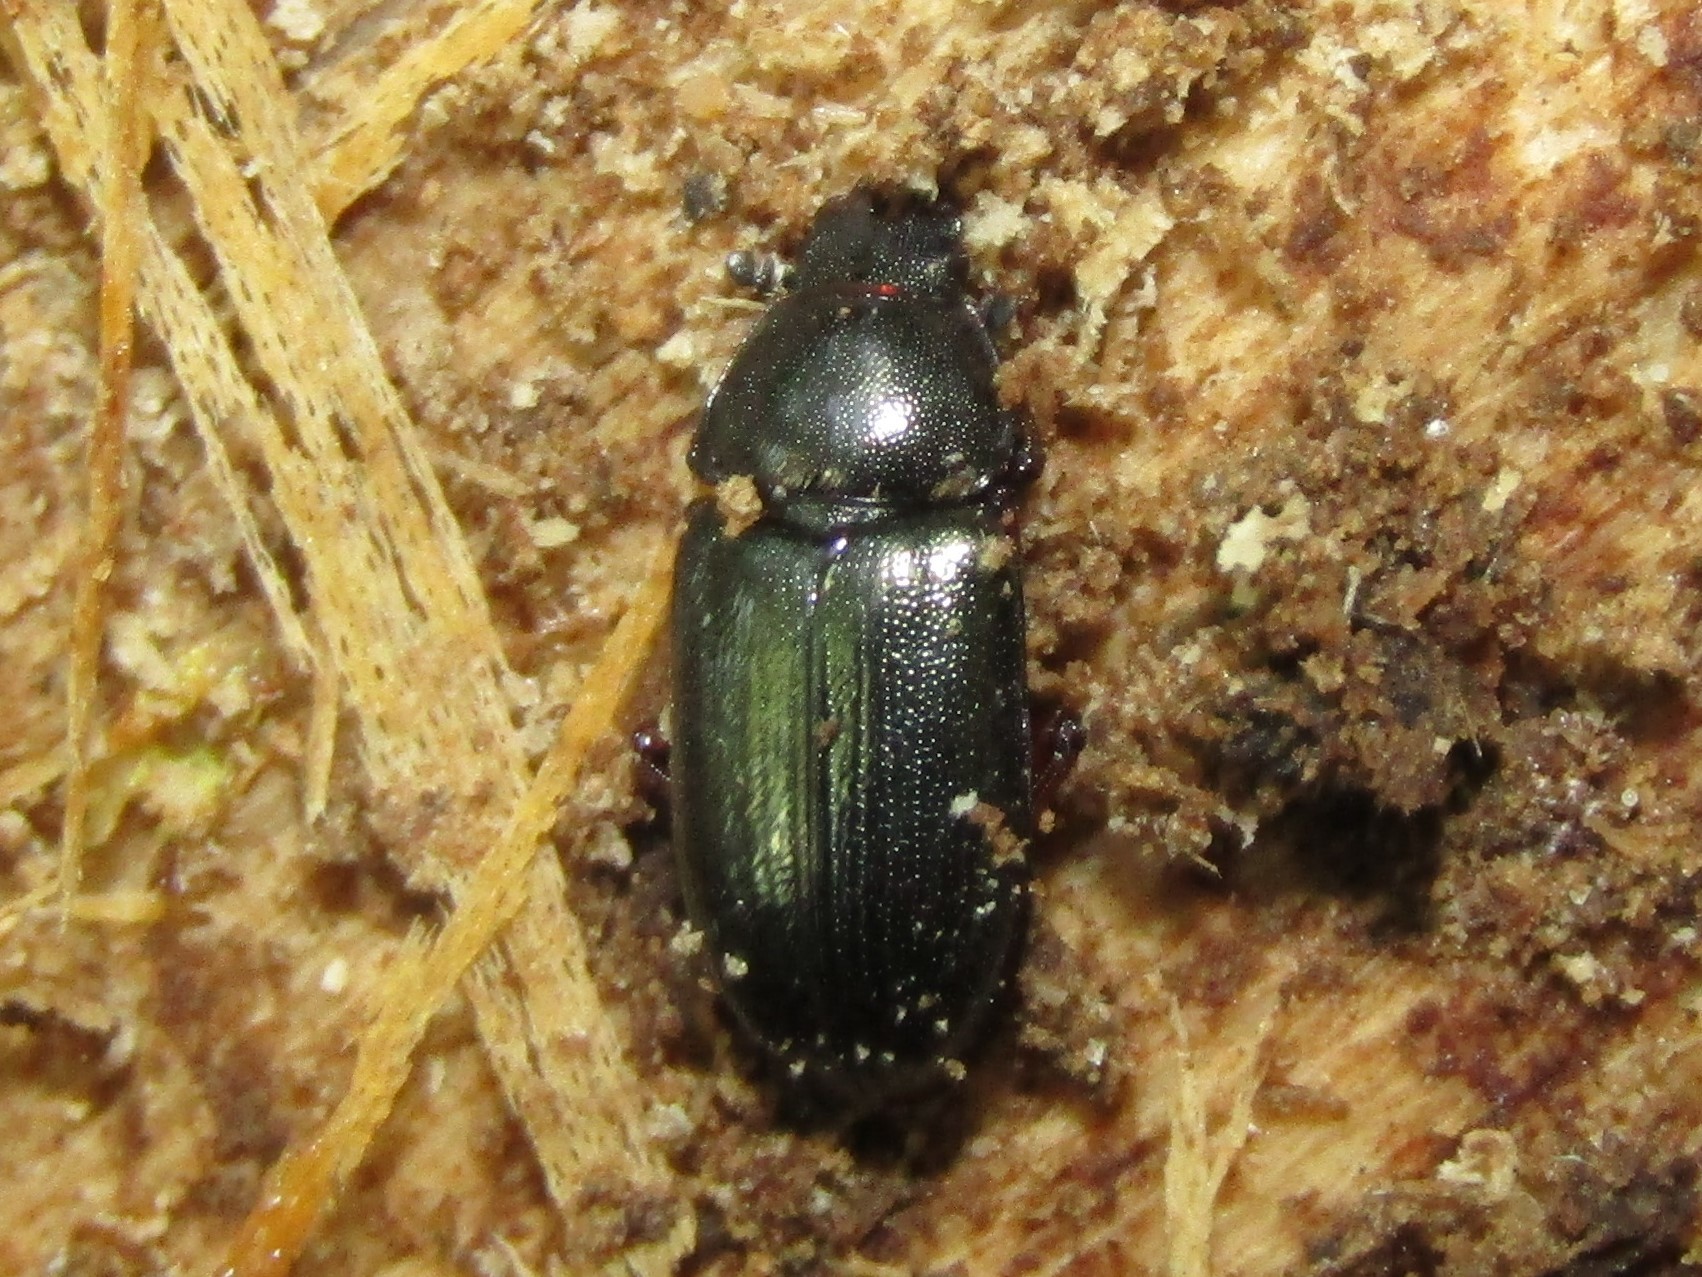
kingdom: Animalia
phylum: Arthropoda
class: Insecta
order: Coleoptera
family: Lucanidae
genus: Platycerus
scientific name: Platycerus quercus
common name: Oak stag beetle
